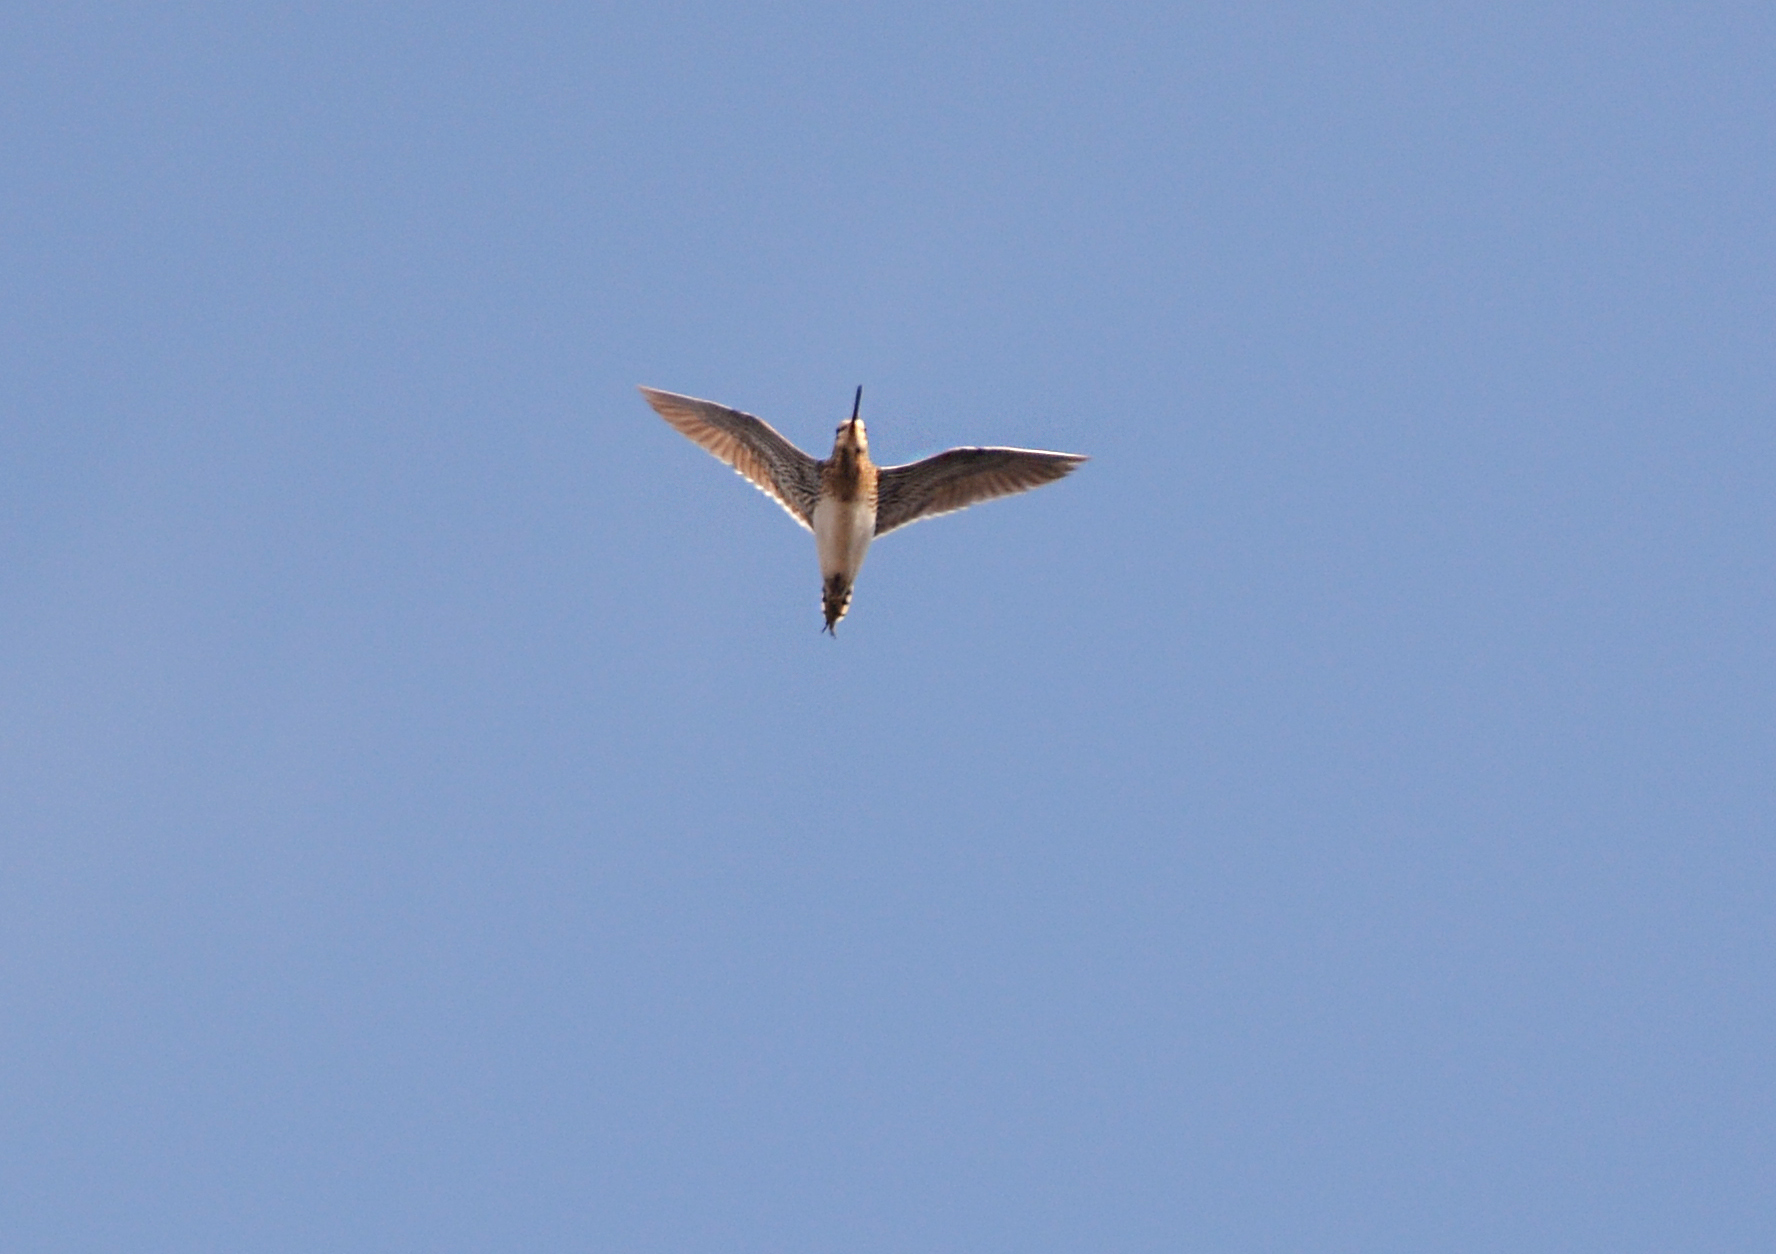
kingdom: Animalia
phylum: Chordata
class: Aves
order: Charadriiformes
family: Scolopacidae
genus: Gallinago
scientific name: Gallinago gallinago
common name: Common snipe
